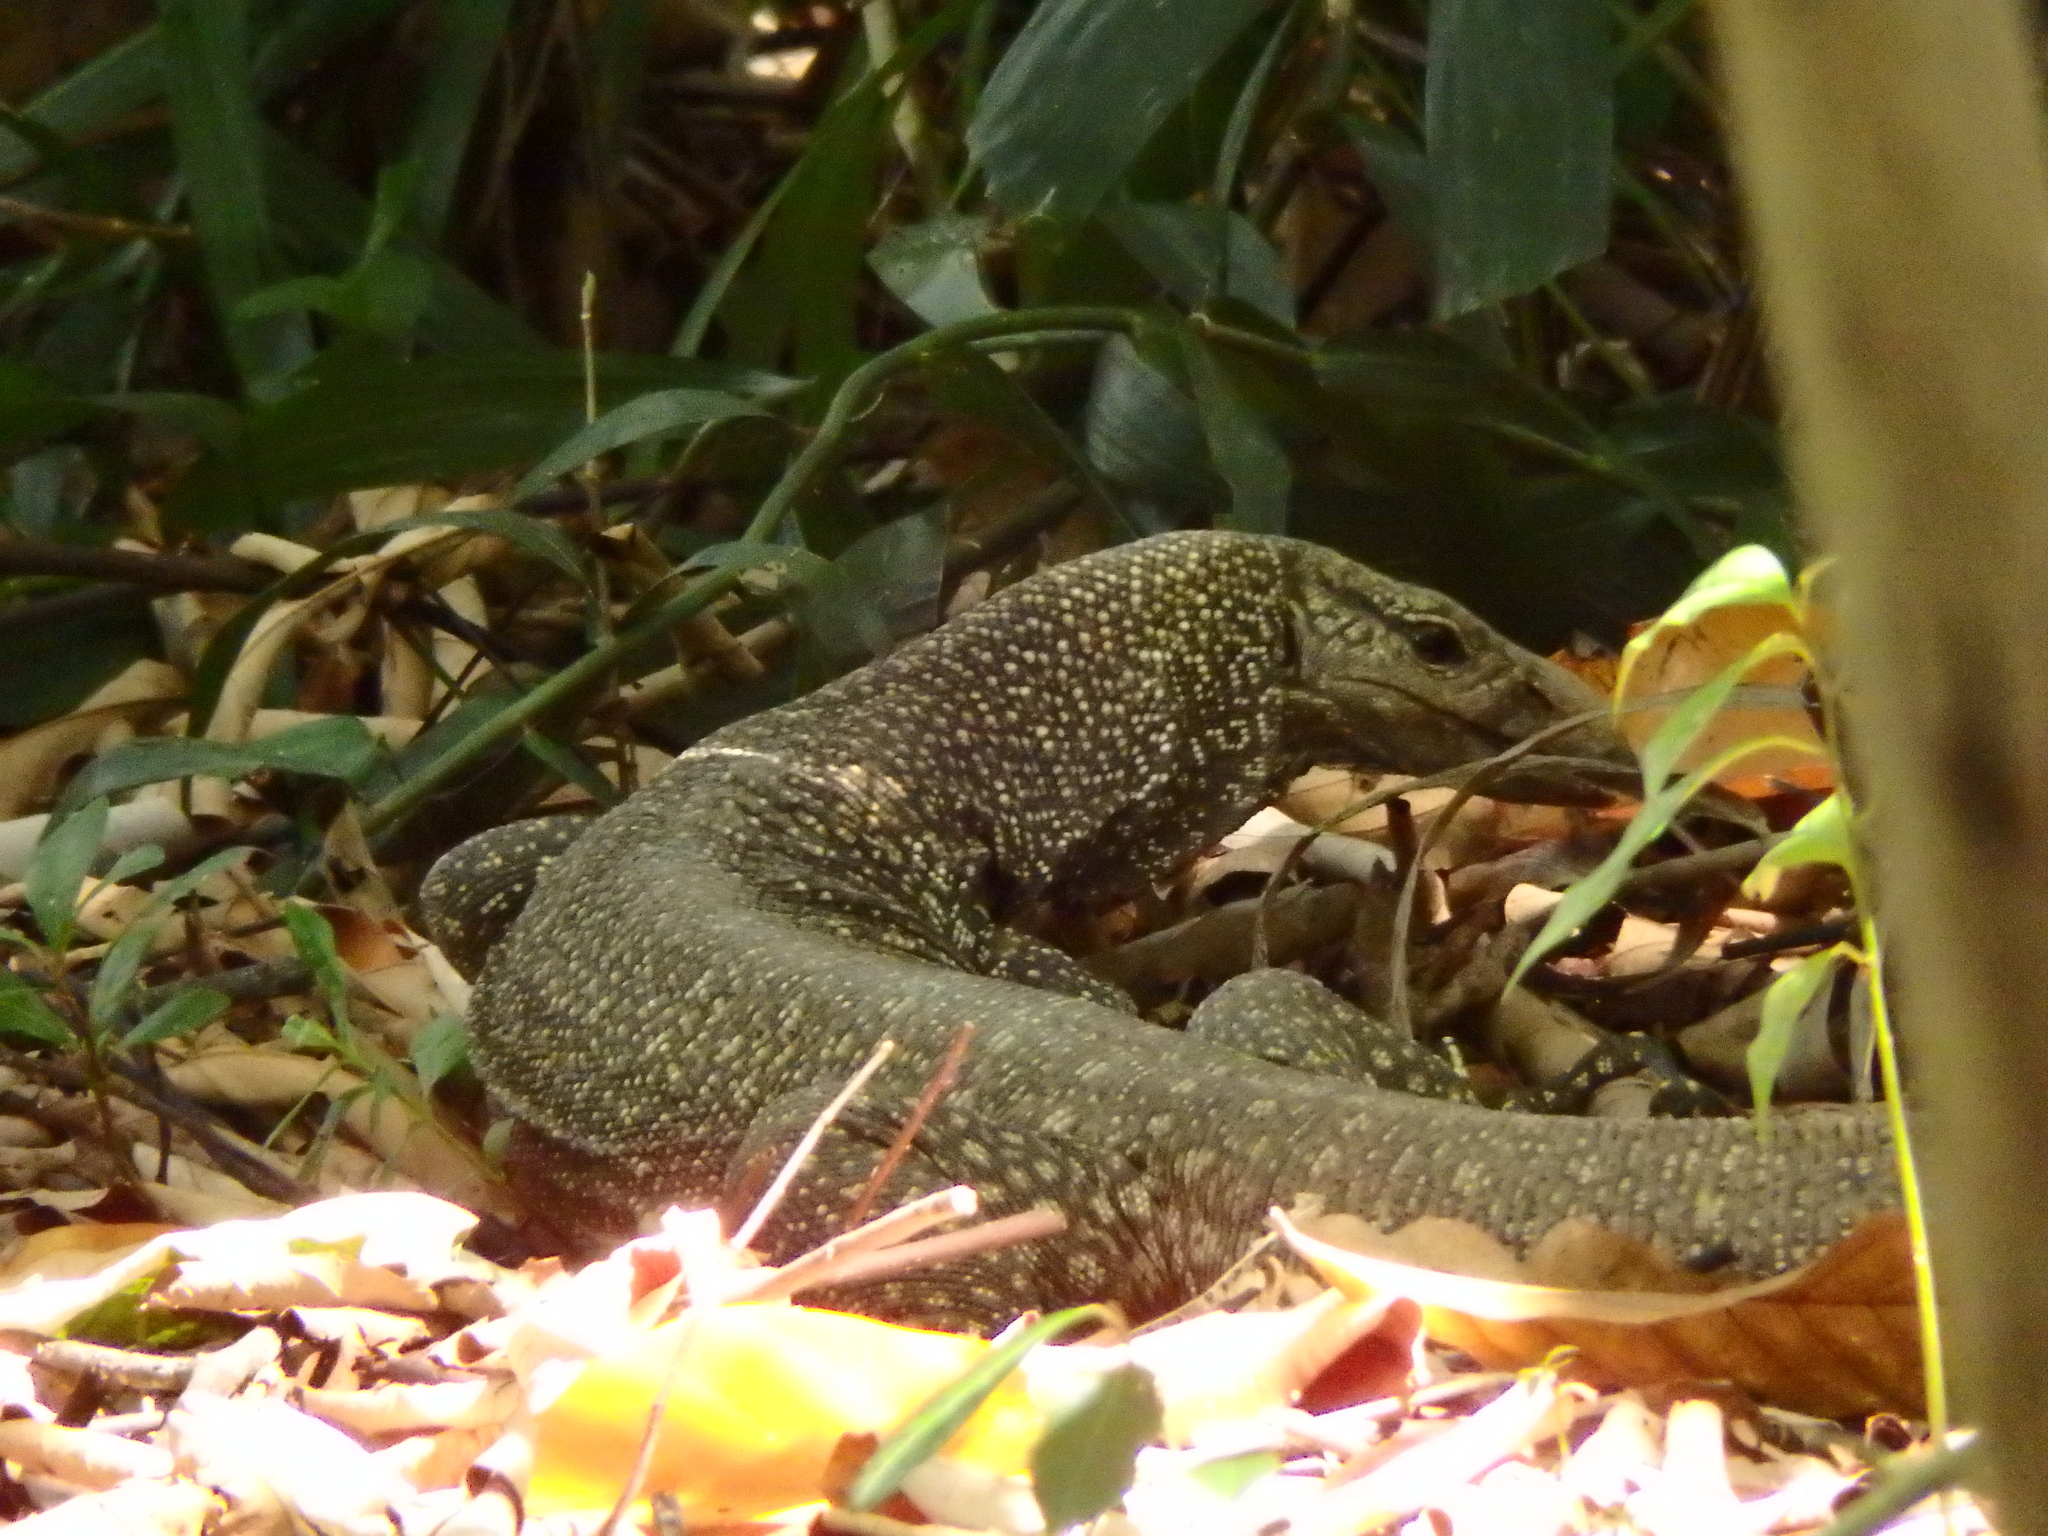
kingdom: Animalia
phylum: Chordata
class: Squamata
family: Varanidae
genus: Varanus
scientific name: Varanus nebulosus
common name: Clouded monitor
